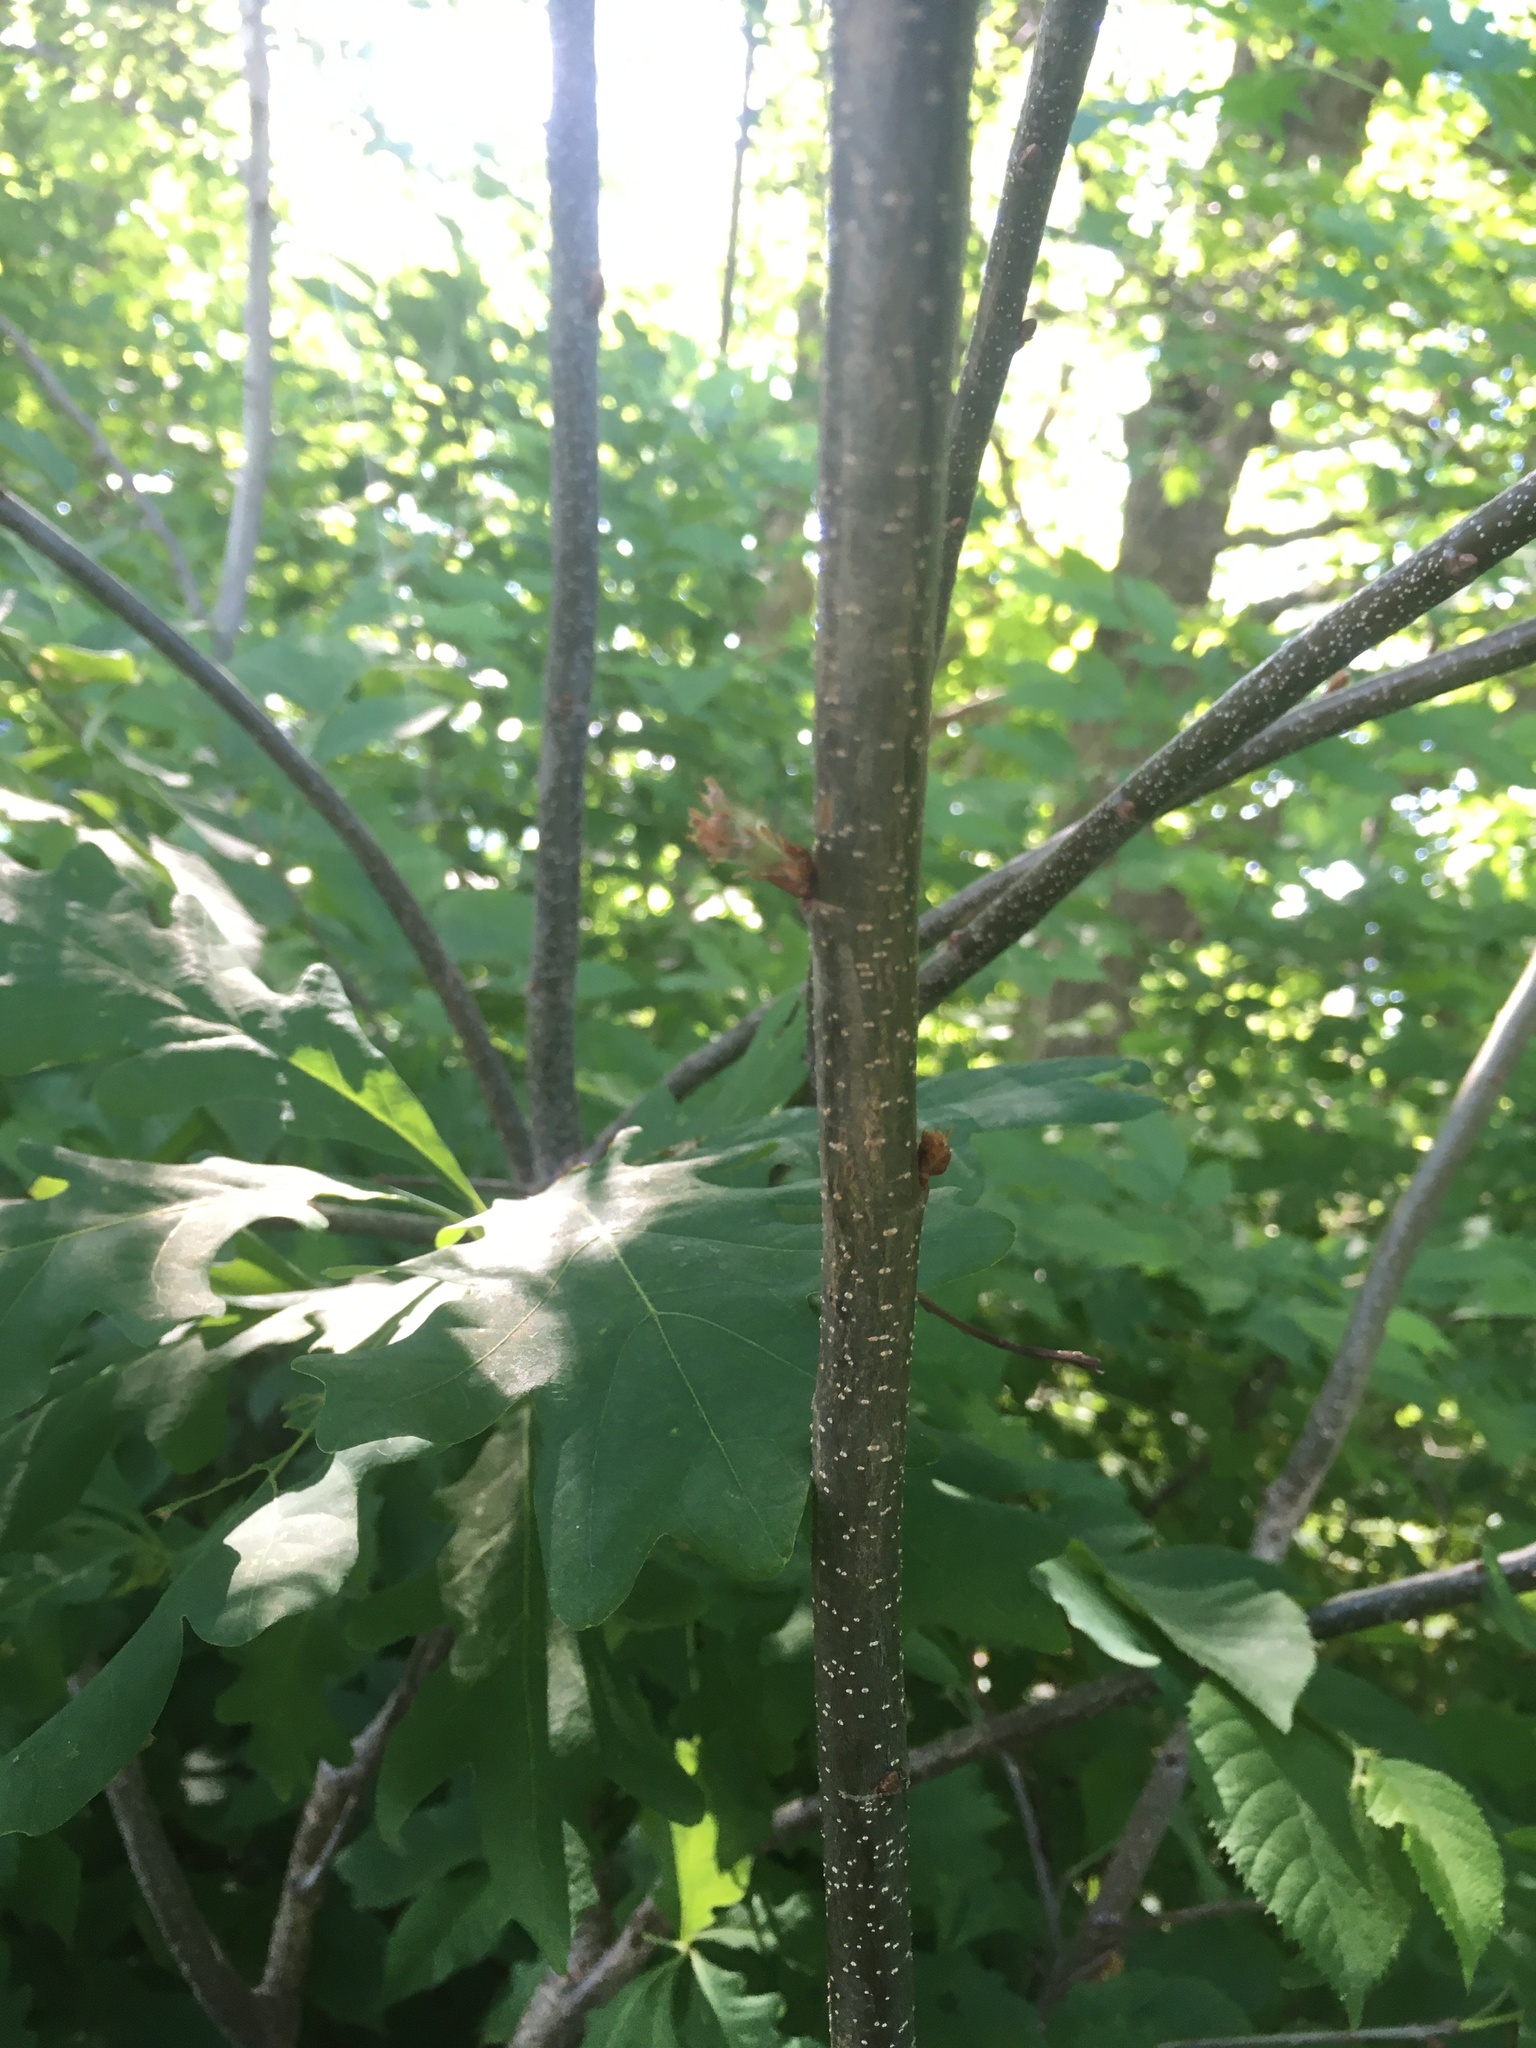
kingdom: Plantae
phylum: Tracheophyta
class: Magnoliopsida
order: Fagales
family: Fagaceae
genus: Quercus
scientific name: Quercus alba
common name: White oak
